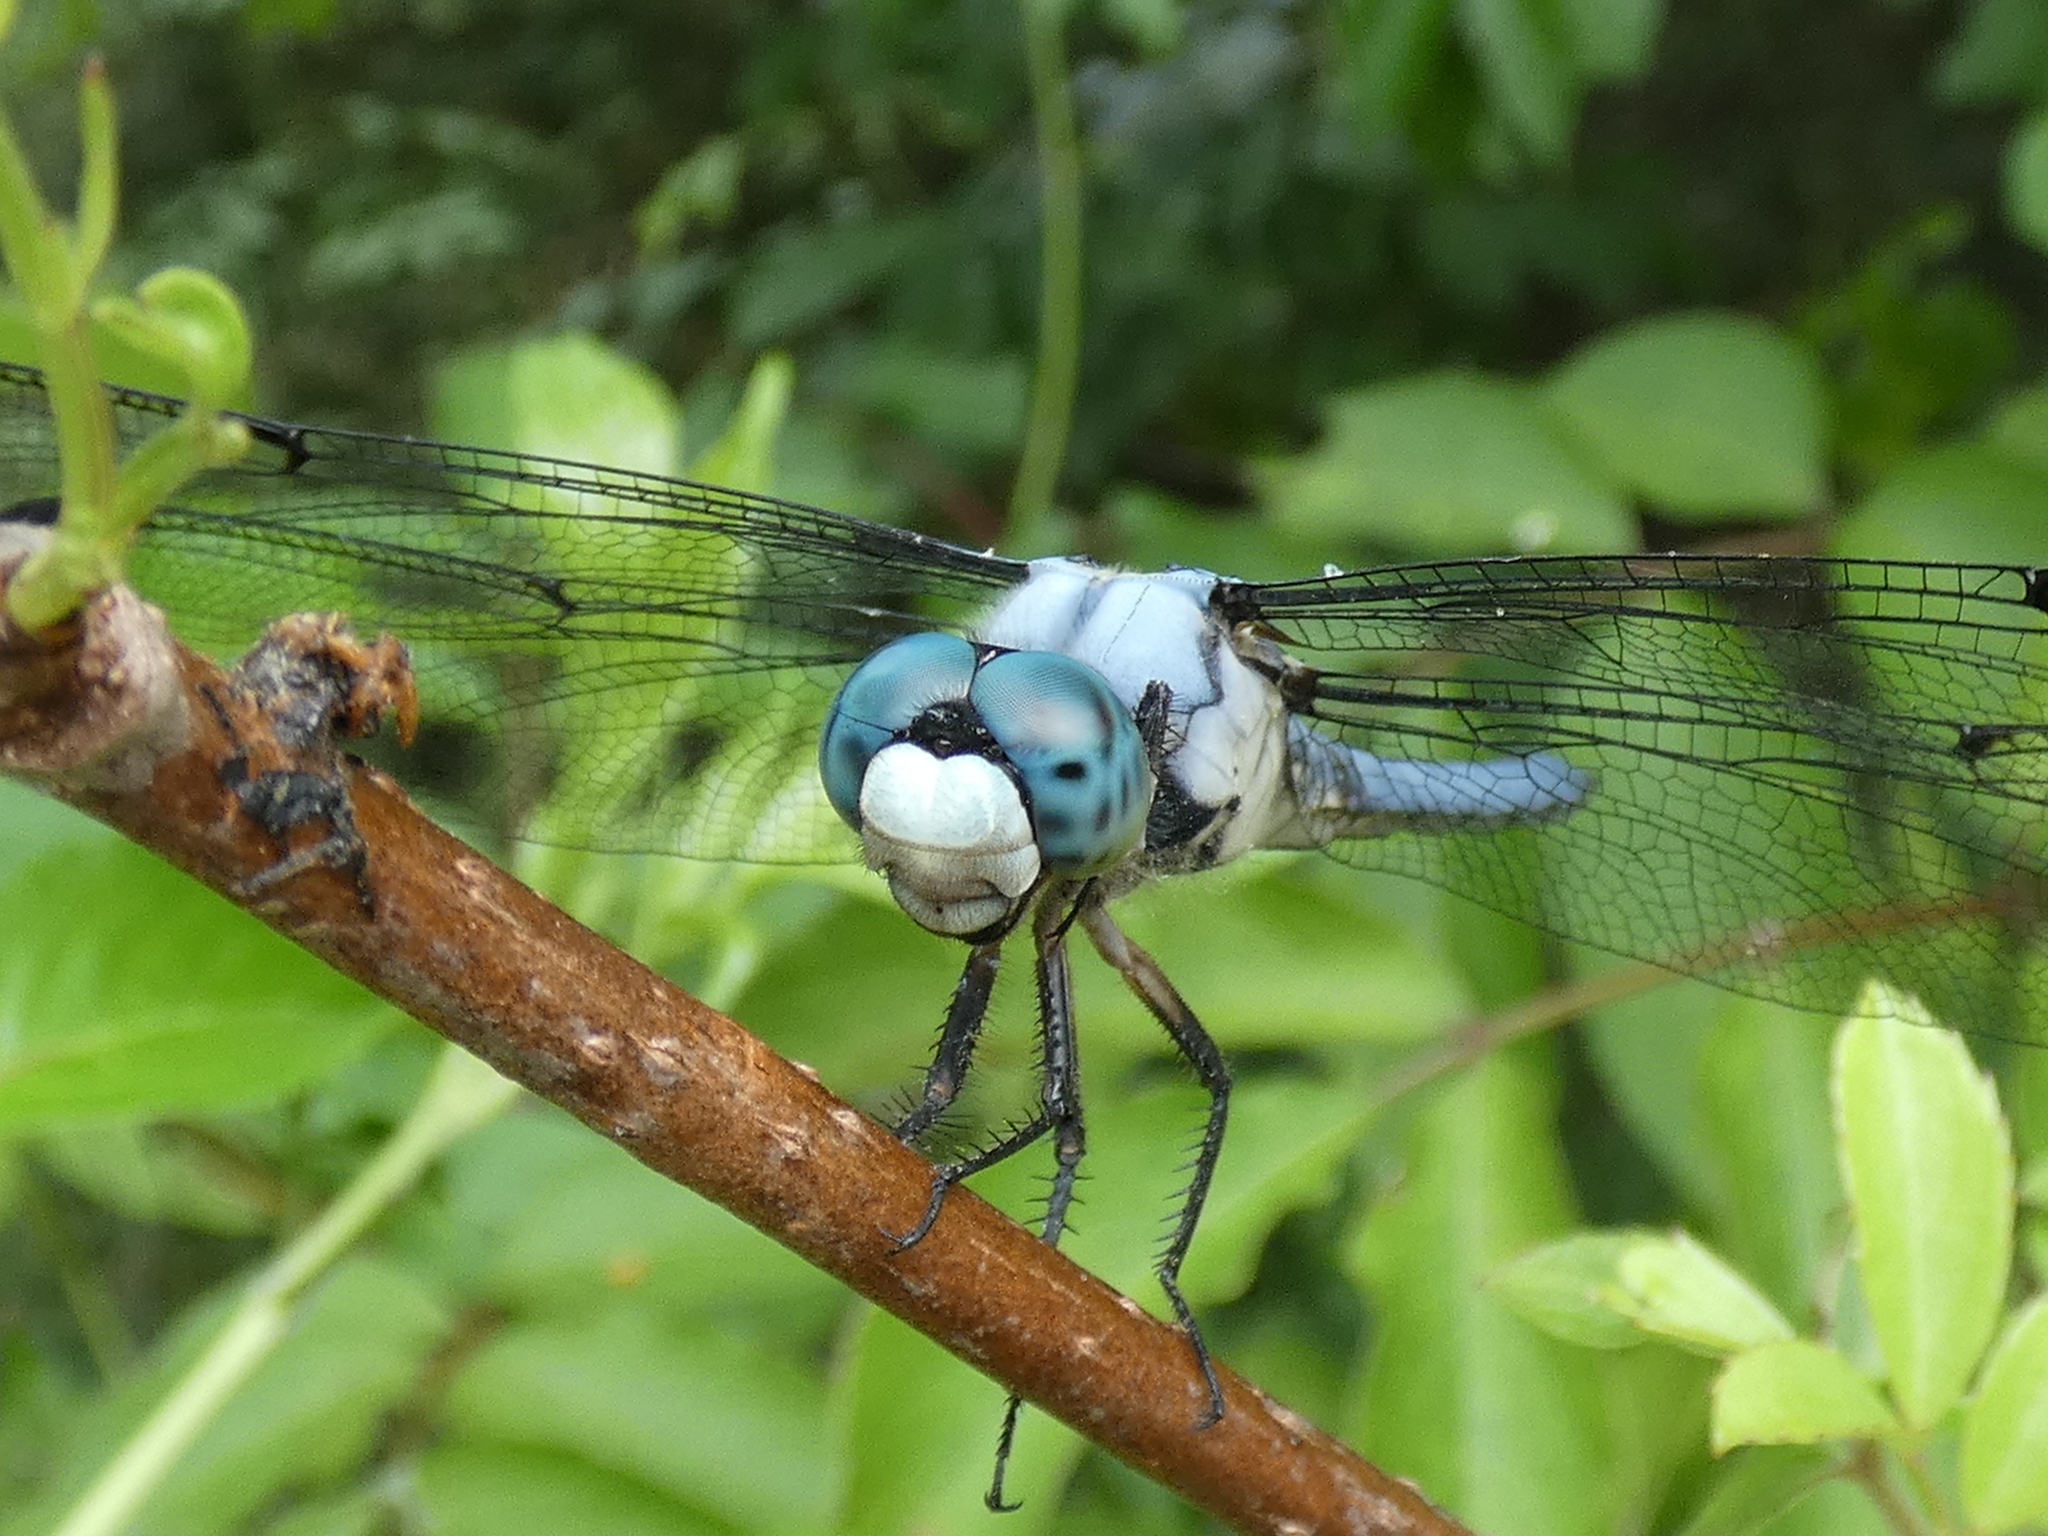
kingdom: Animalia
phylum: Arthropoda
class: Insecta
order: Odonata
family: Libellulidae
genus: Libellula
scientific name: Libellula vibrans
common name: Great blue skimmer
